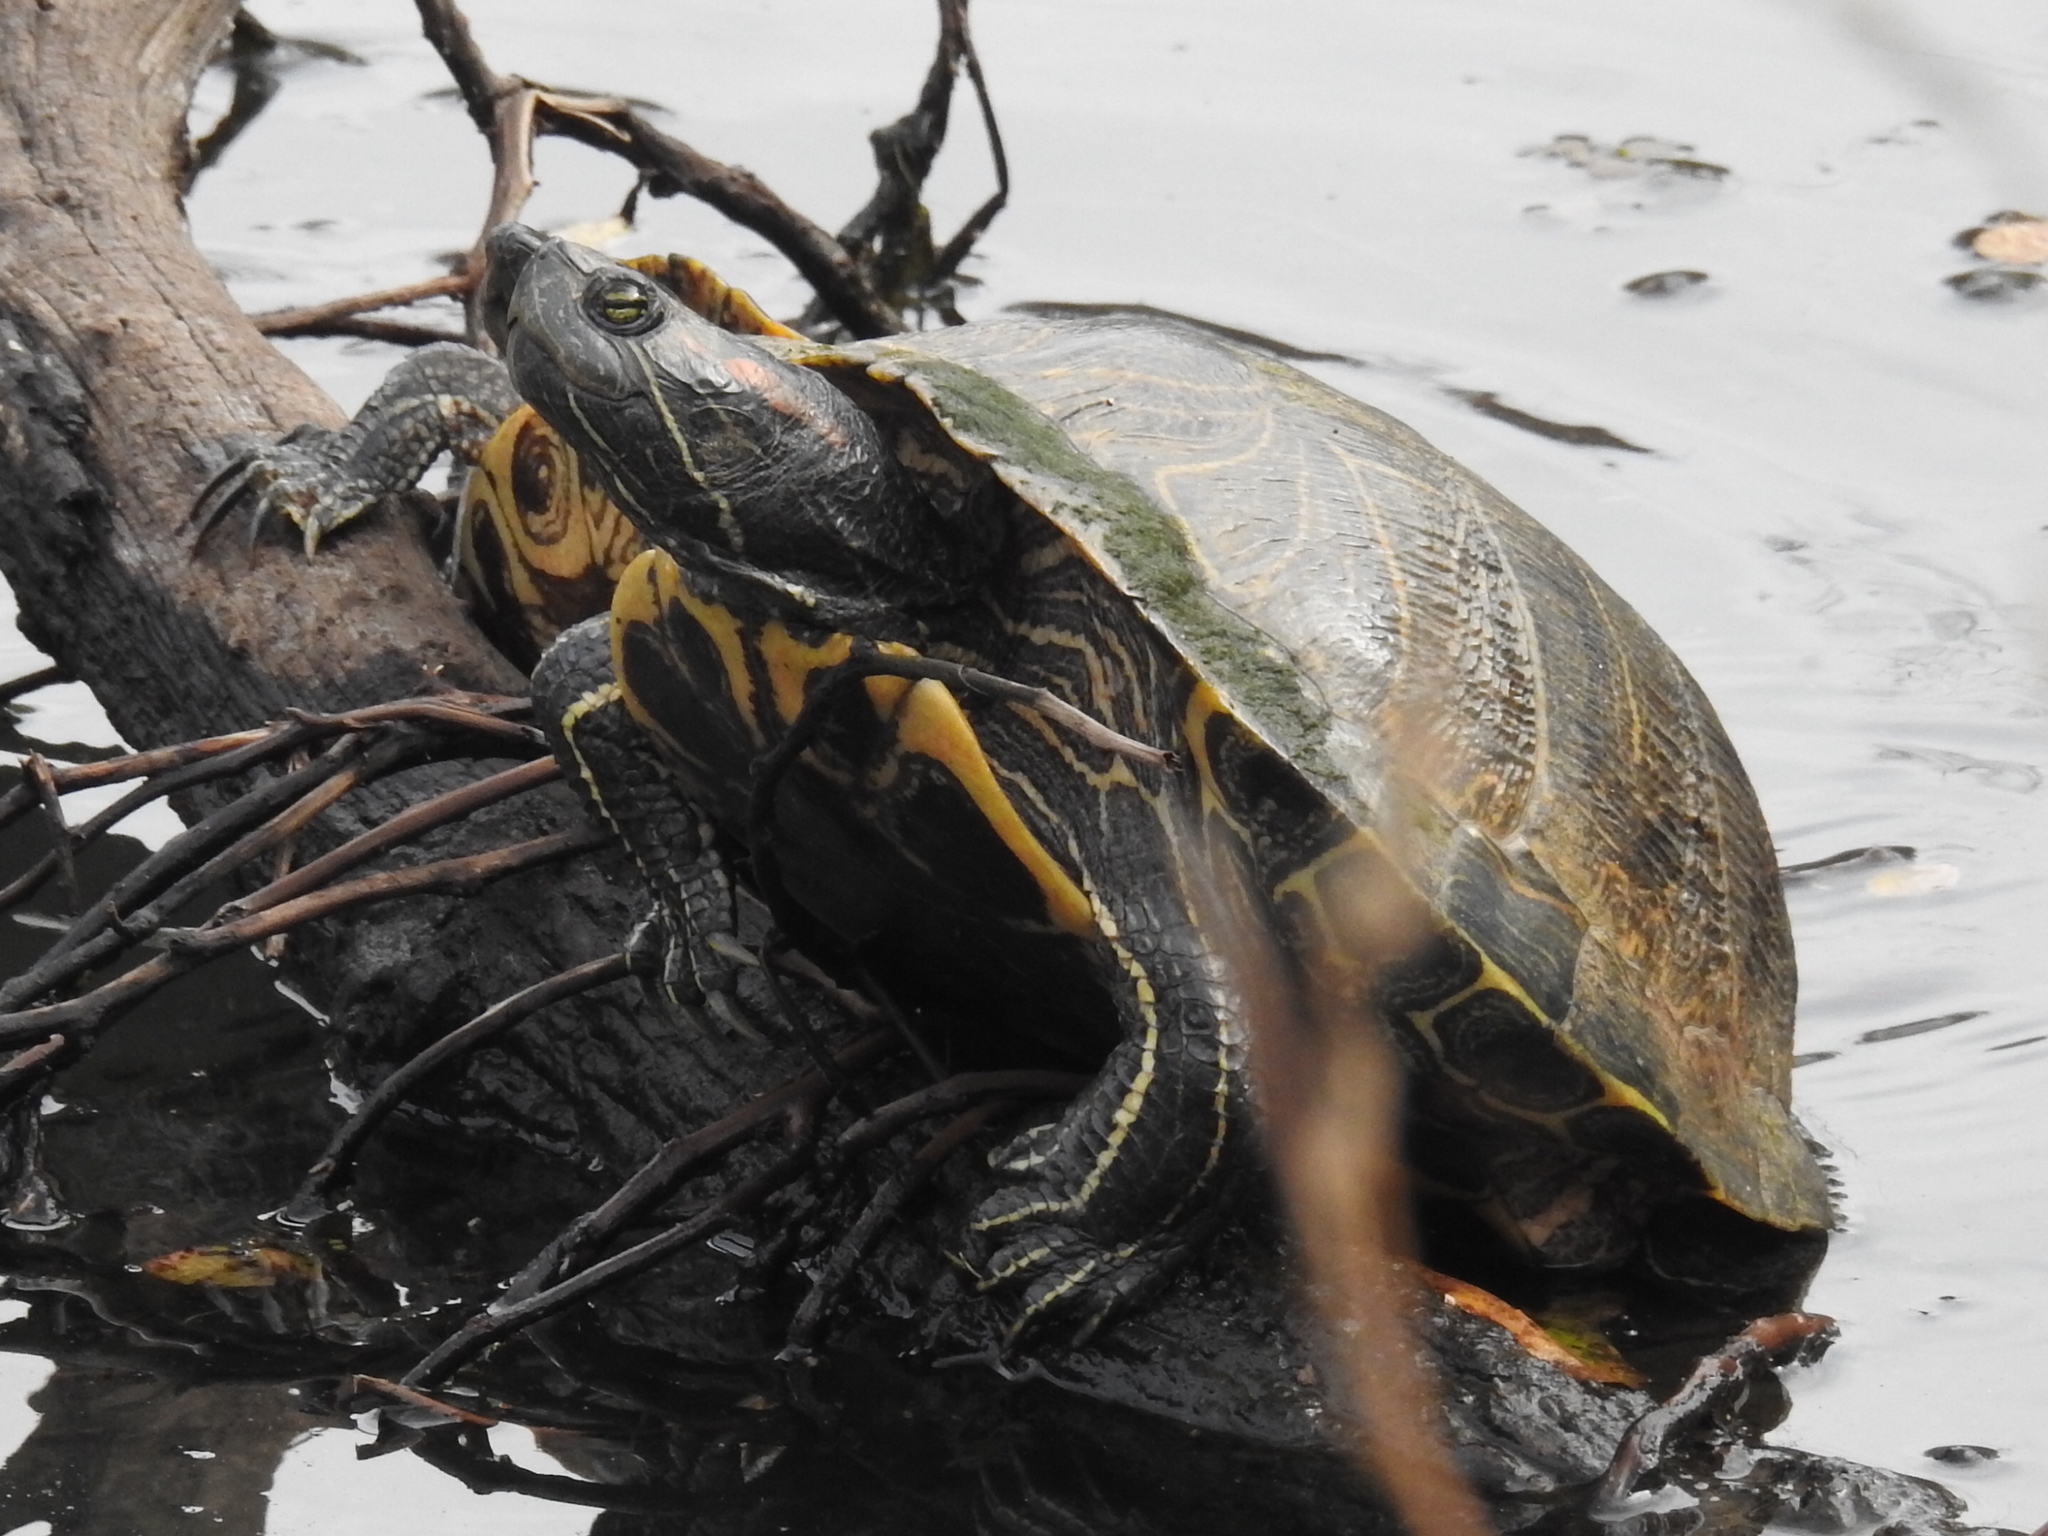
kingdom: Animalia
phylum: Chordata
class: Testudines
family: Emydidae
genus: Trachemys
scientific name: Trachemys scripta
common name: Slider
